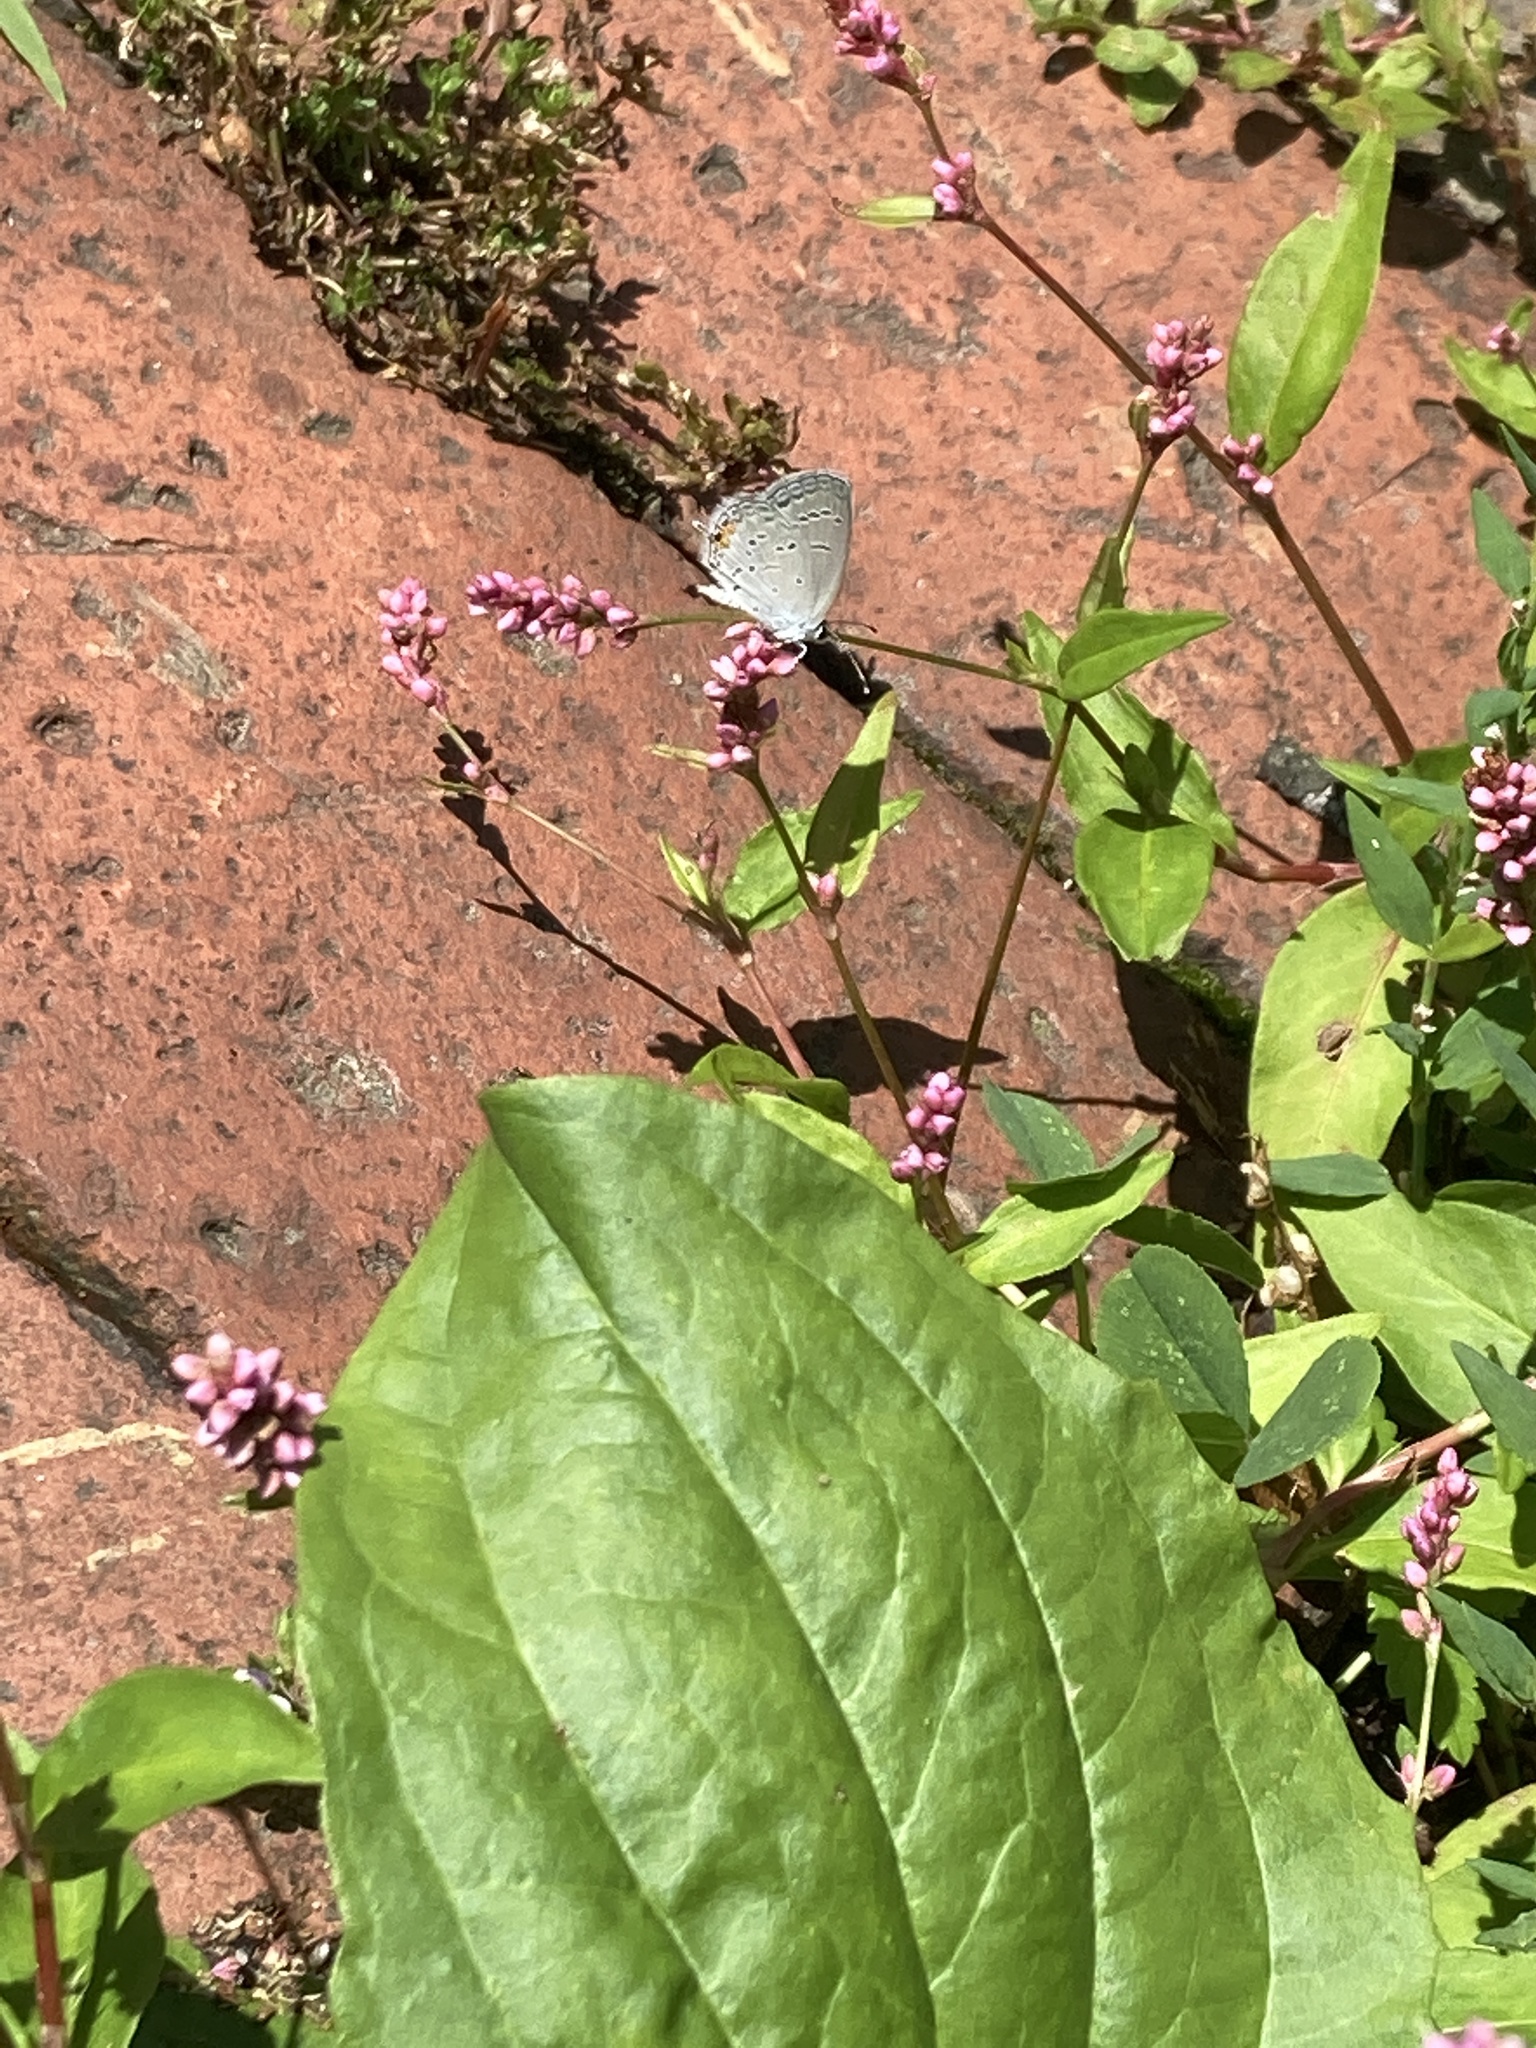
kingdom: Animalia
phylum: Arthropoda
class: Insecta
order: Lepidoptera
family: Lycaenidae
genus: Elkalyce
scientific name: Elkalyce comyntas
